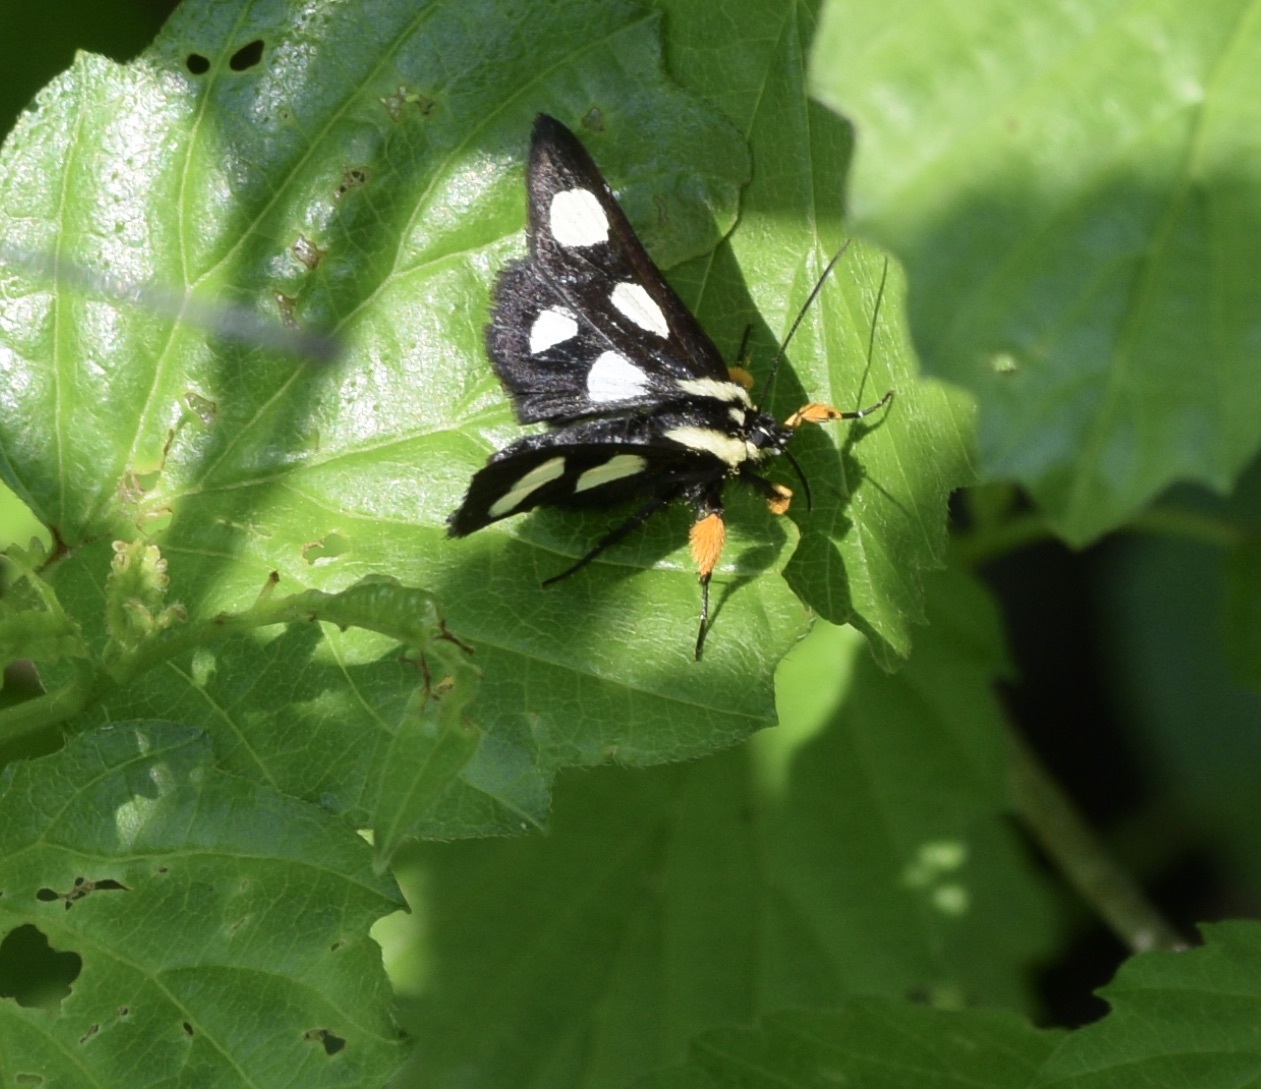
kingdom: Animalia
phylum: Arthropoda
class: Insecta
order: Lepidoptera
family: Noctuidae
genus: Alypia
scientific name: Alypia octomaculata
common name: Eight-spotted forester
